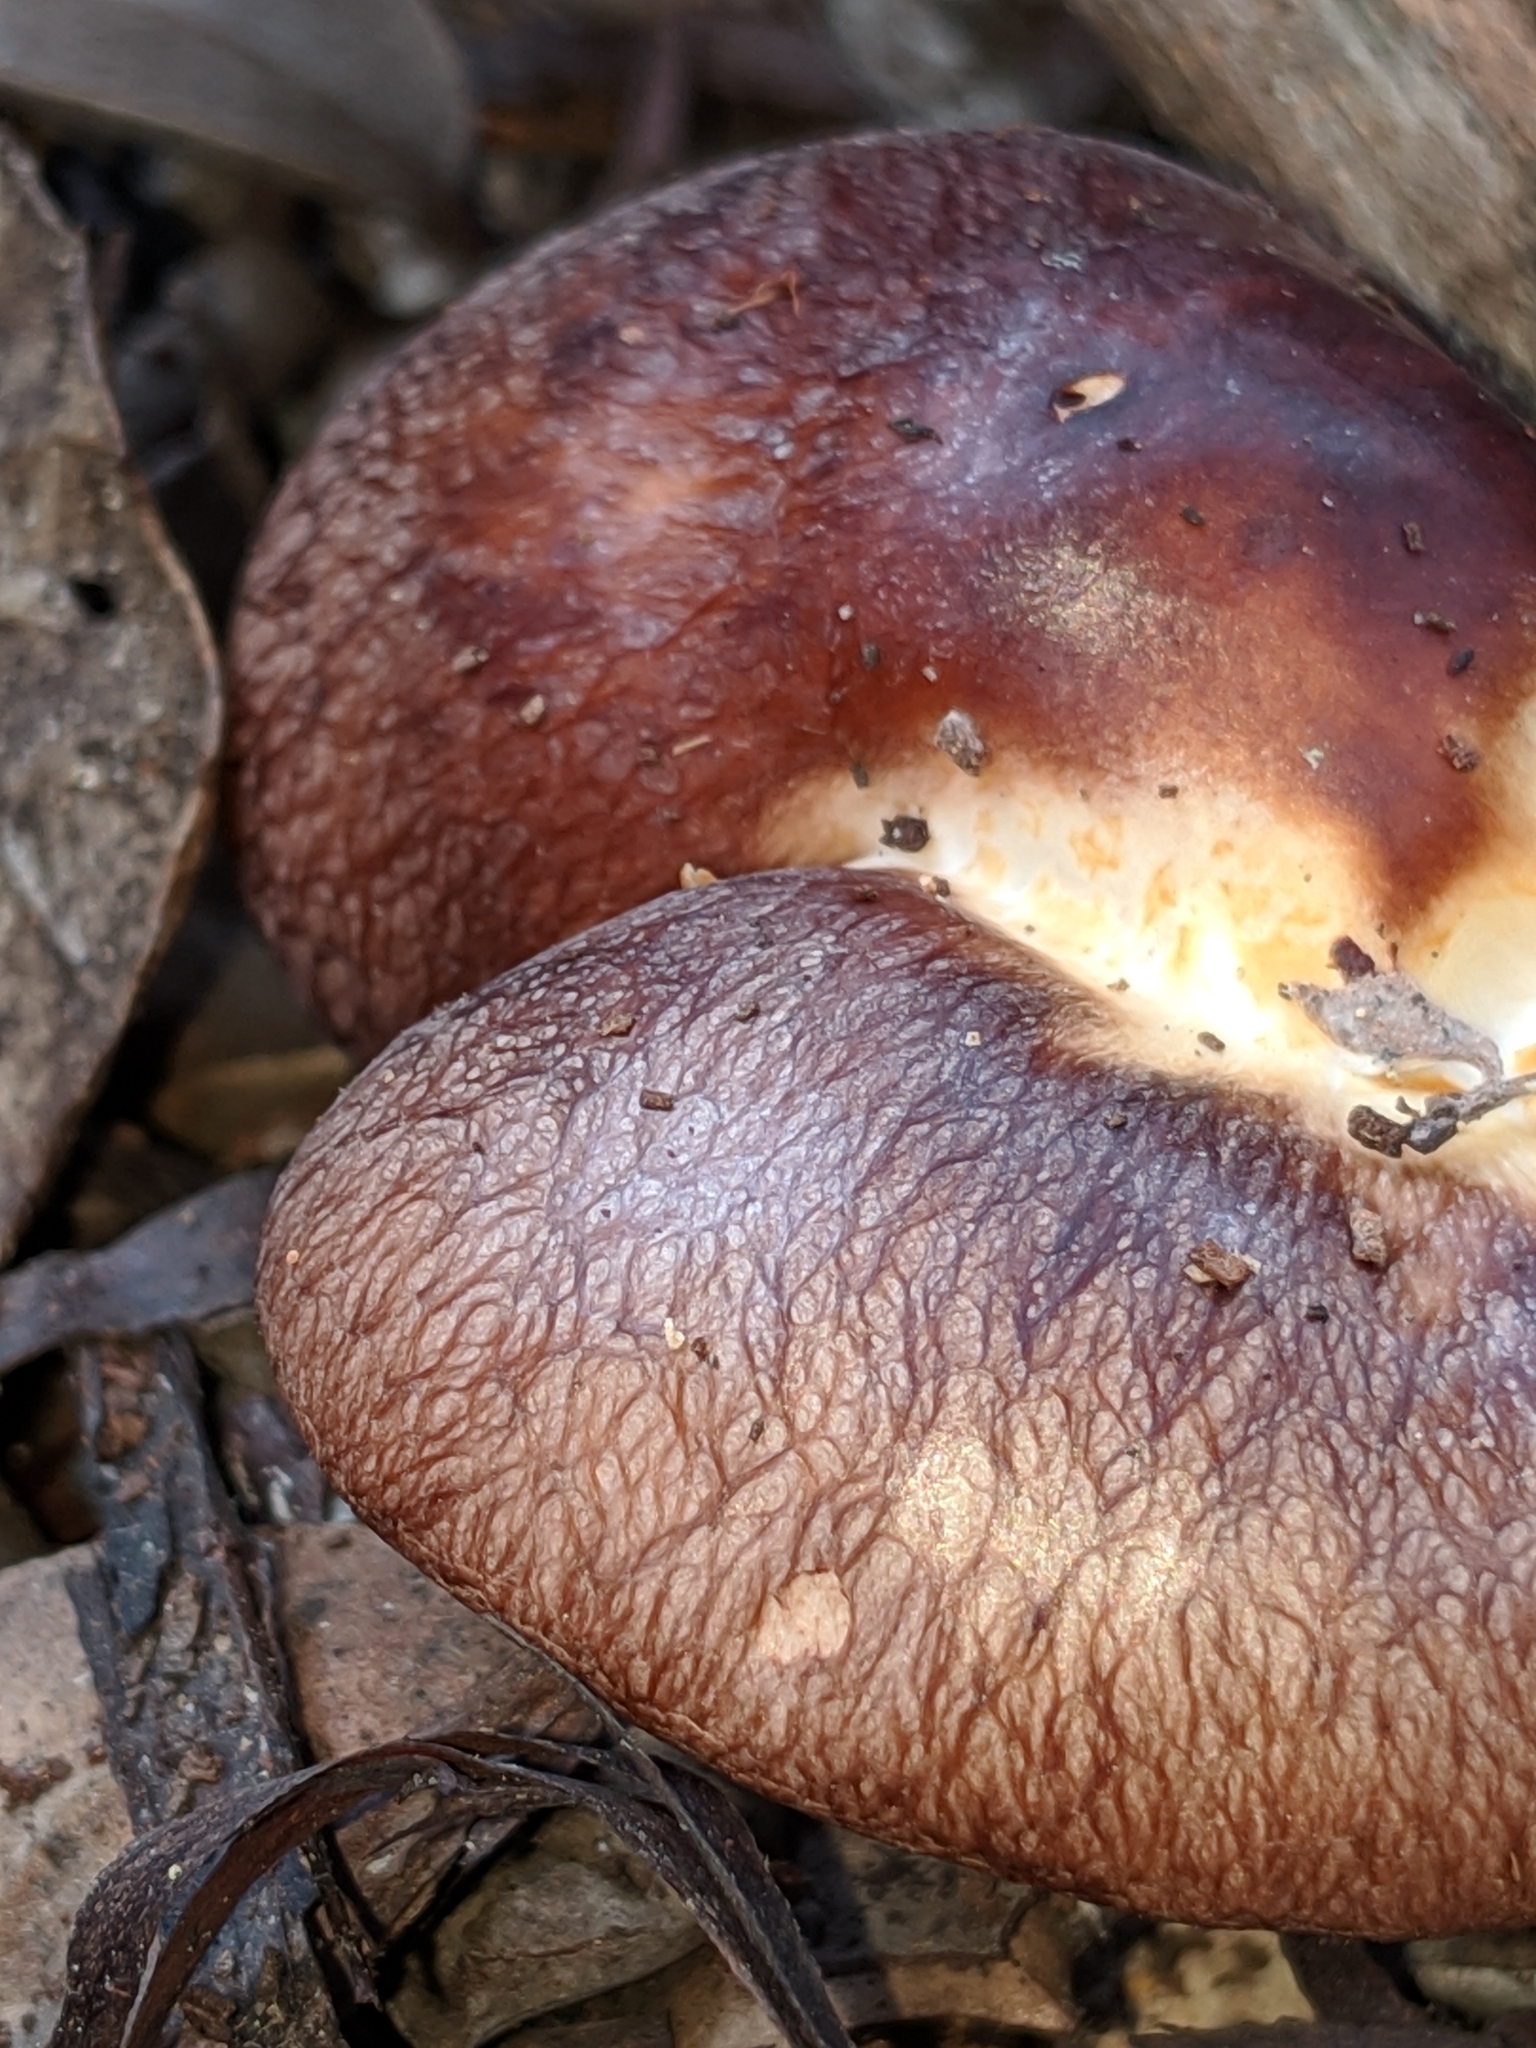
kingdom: Fungi
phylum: Basidiomycota
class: Agaricomycetes
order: Agaricales
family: Omphalotaceae
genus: Rhodocollybia
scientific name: Rhodocollybia badiialba
